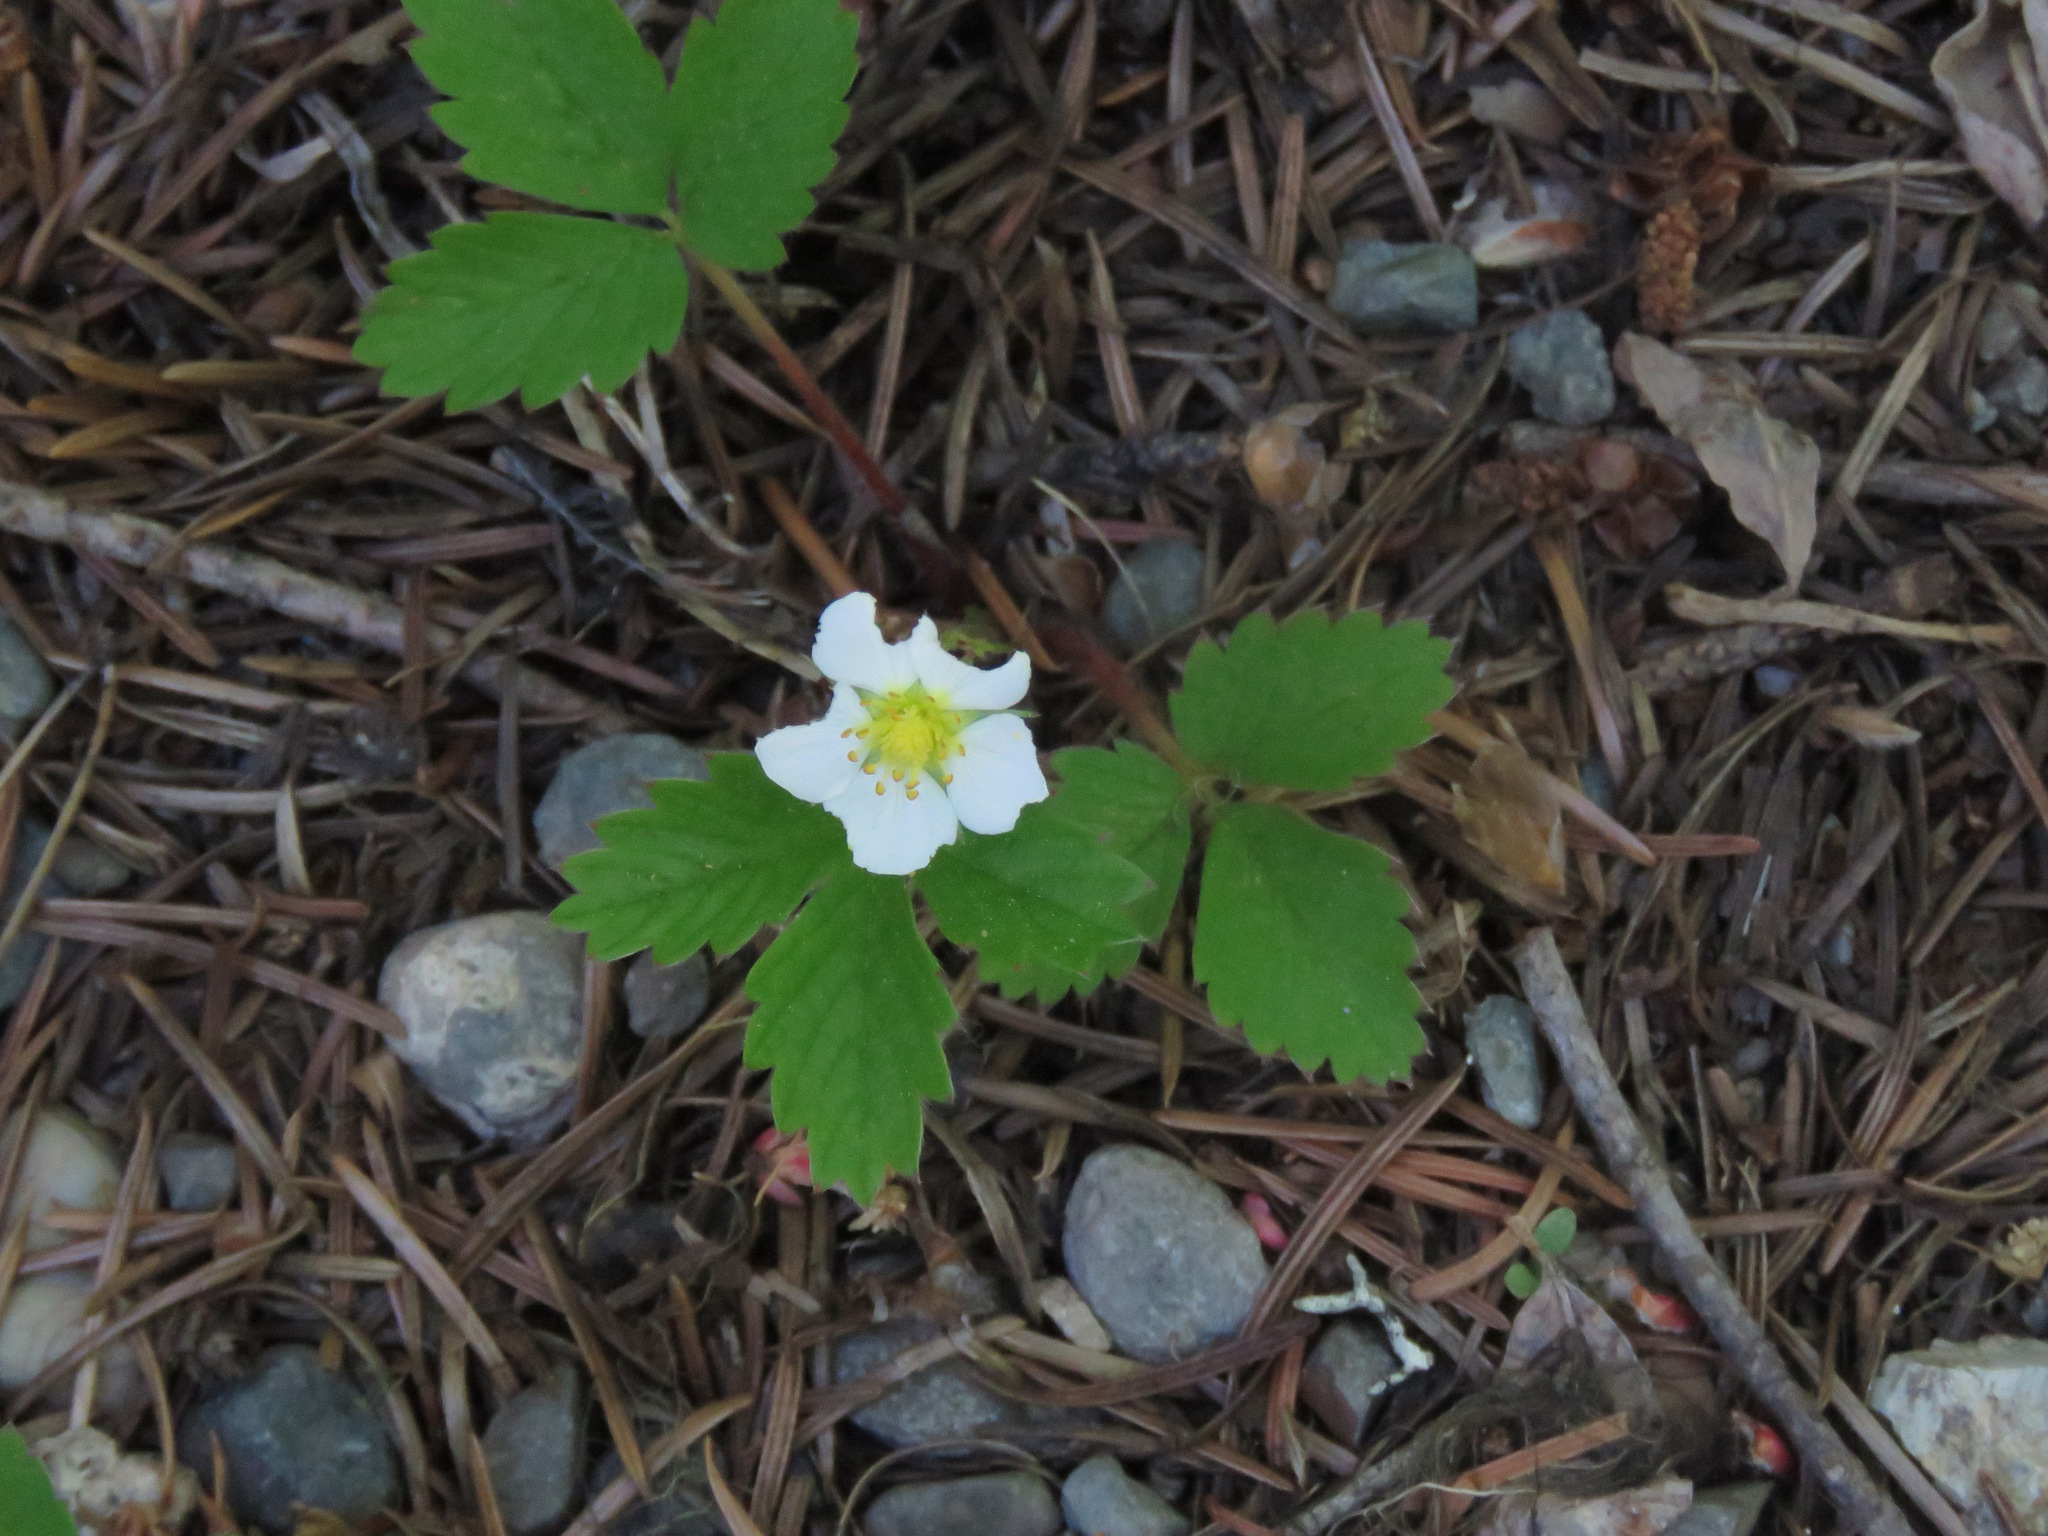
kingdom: Plantae
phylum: Tracheophyta
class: Magnoliopsida
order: Rosales
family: Rosaceae
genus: Fragaria
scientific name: Fragaria vesca
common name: Wild strawberry
